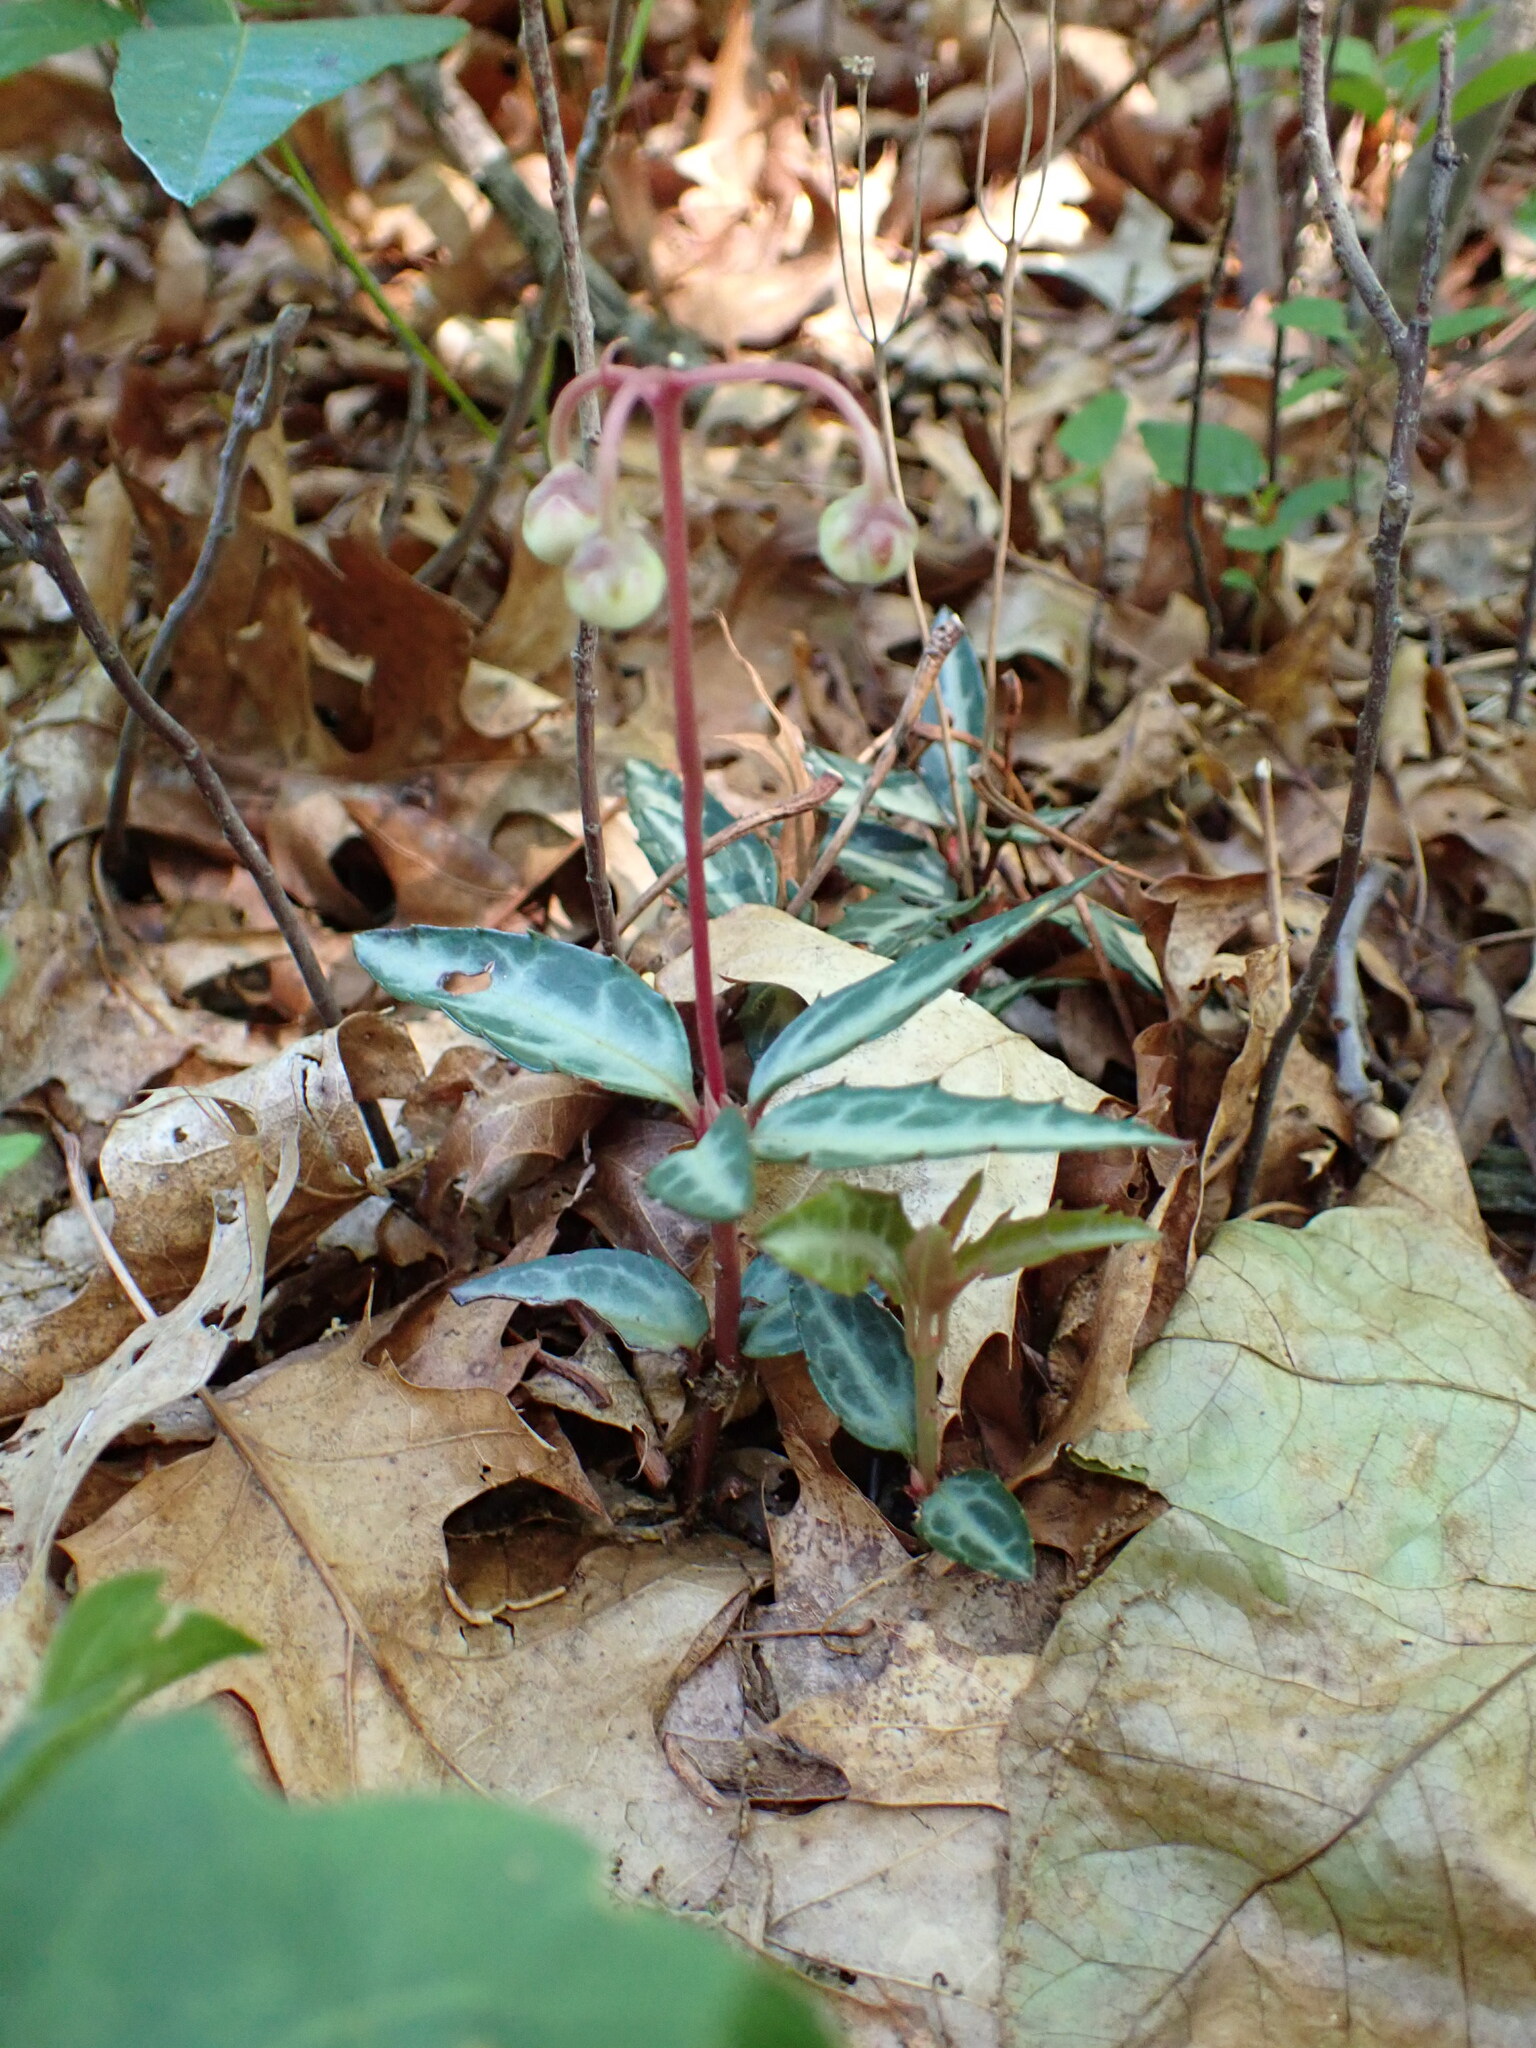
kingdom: Plantae
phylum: Tracheophyta
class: Magnoliopsida
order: Ericales
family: Ericaceae
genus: Chimaphila
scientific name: Chimaphila maculata
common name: Spotted pipsissewa
